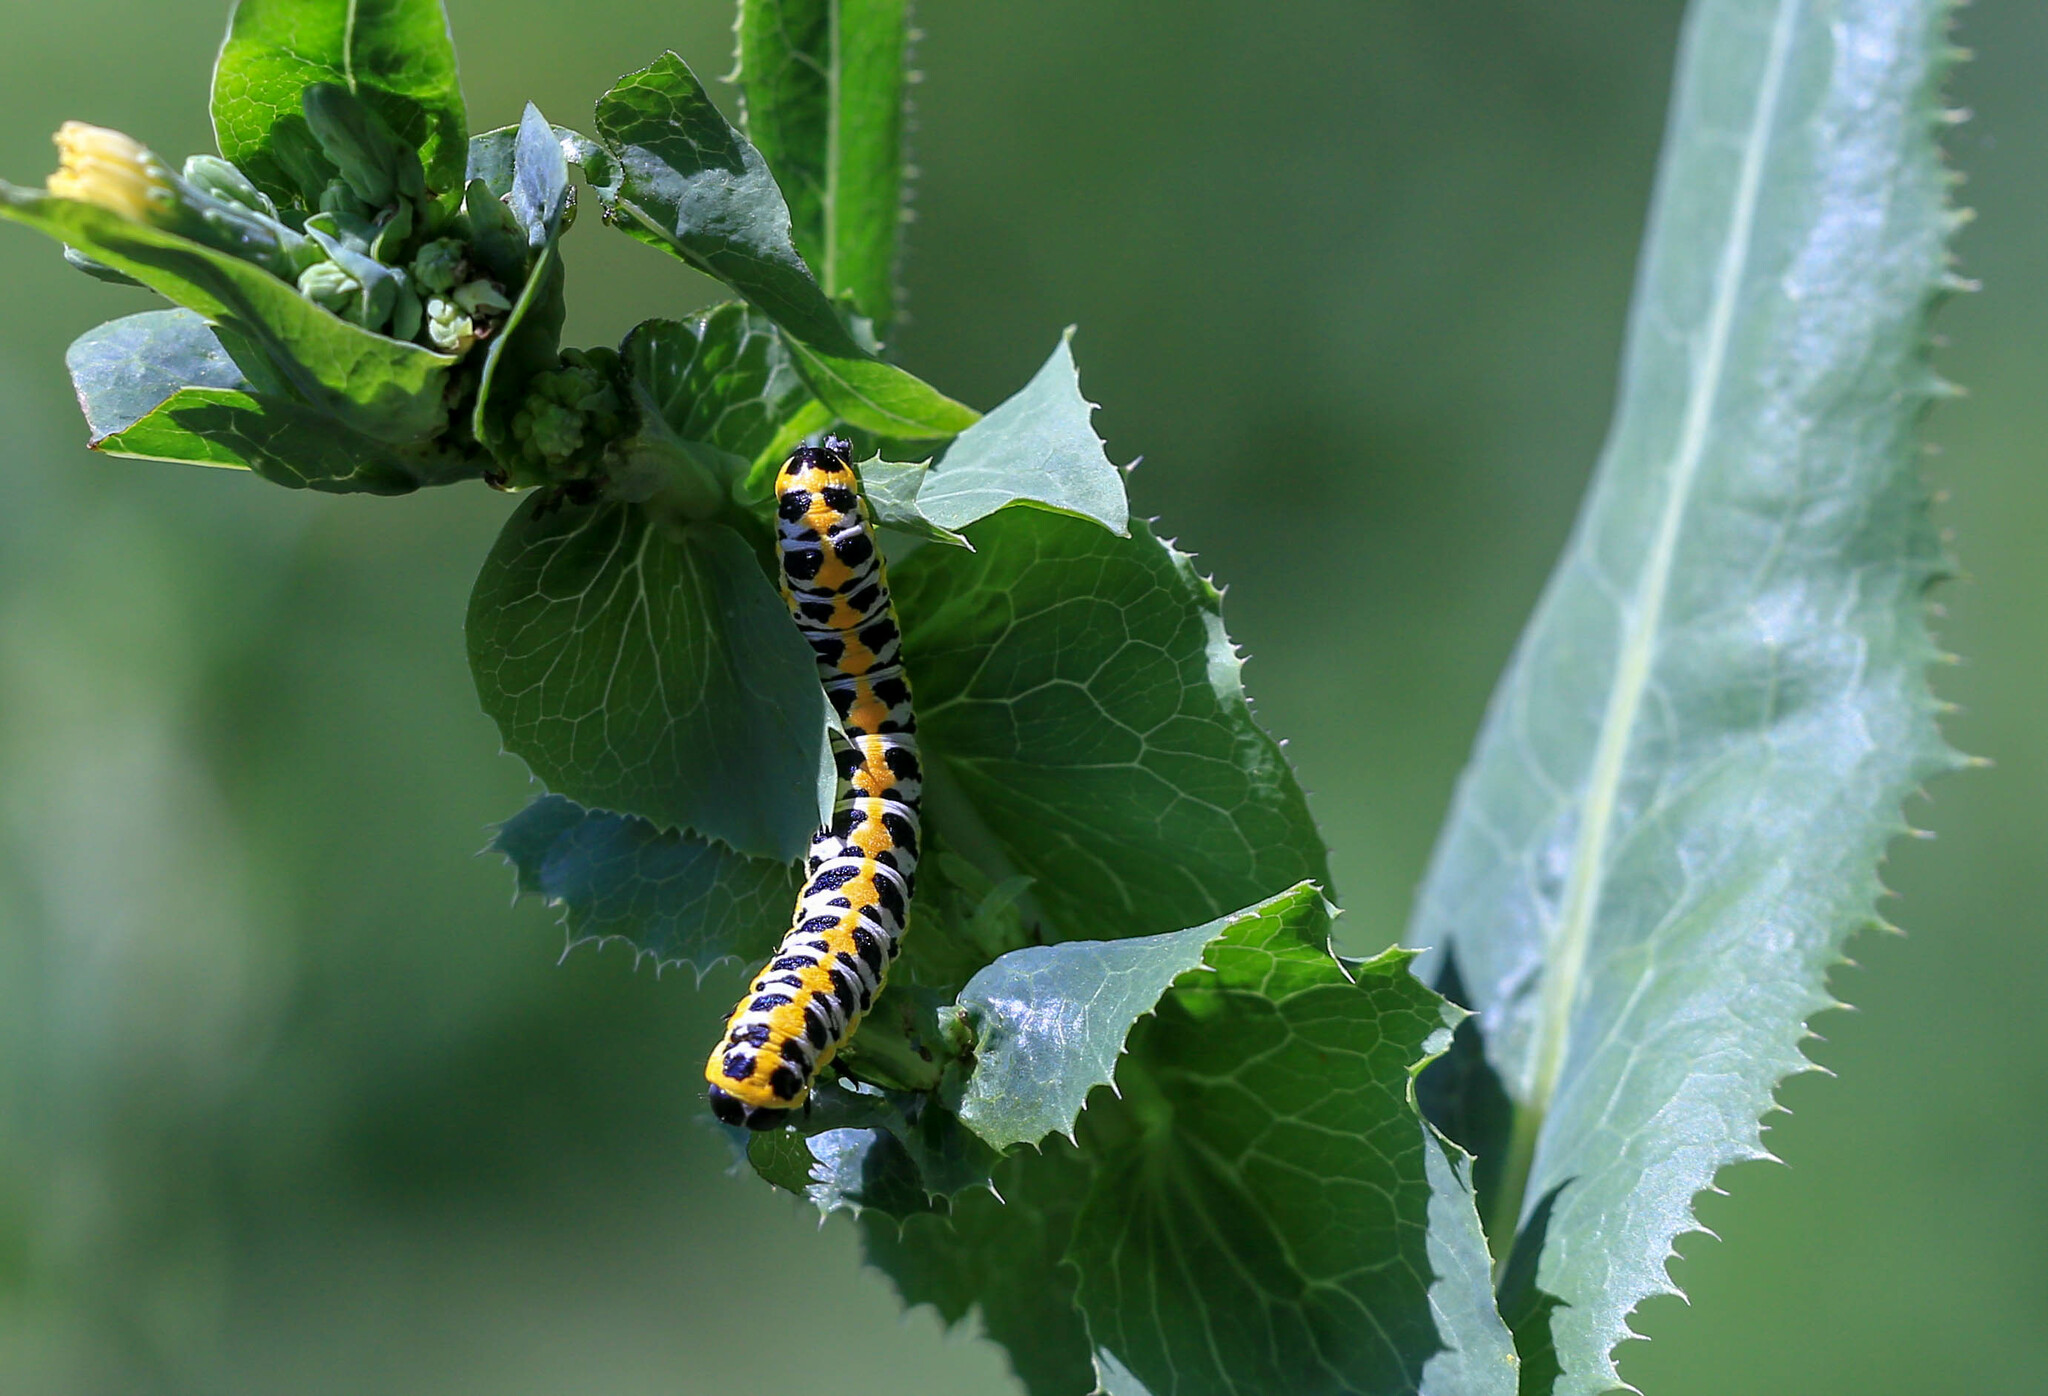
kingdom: Animalia
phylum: Arthropoda
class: Insecta
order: Lepidoptera
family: Noctuidae
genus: Cucullia
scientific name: Cucullia pustulata
